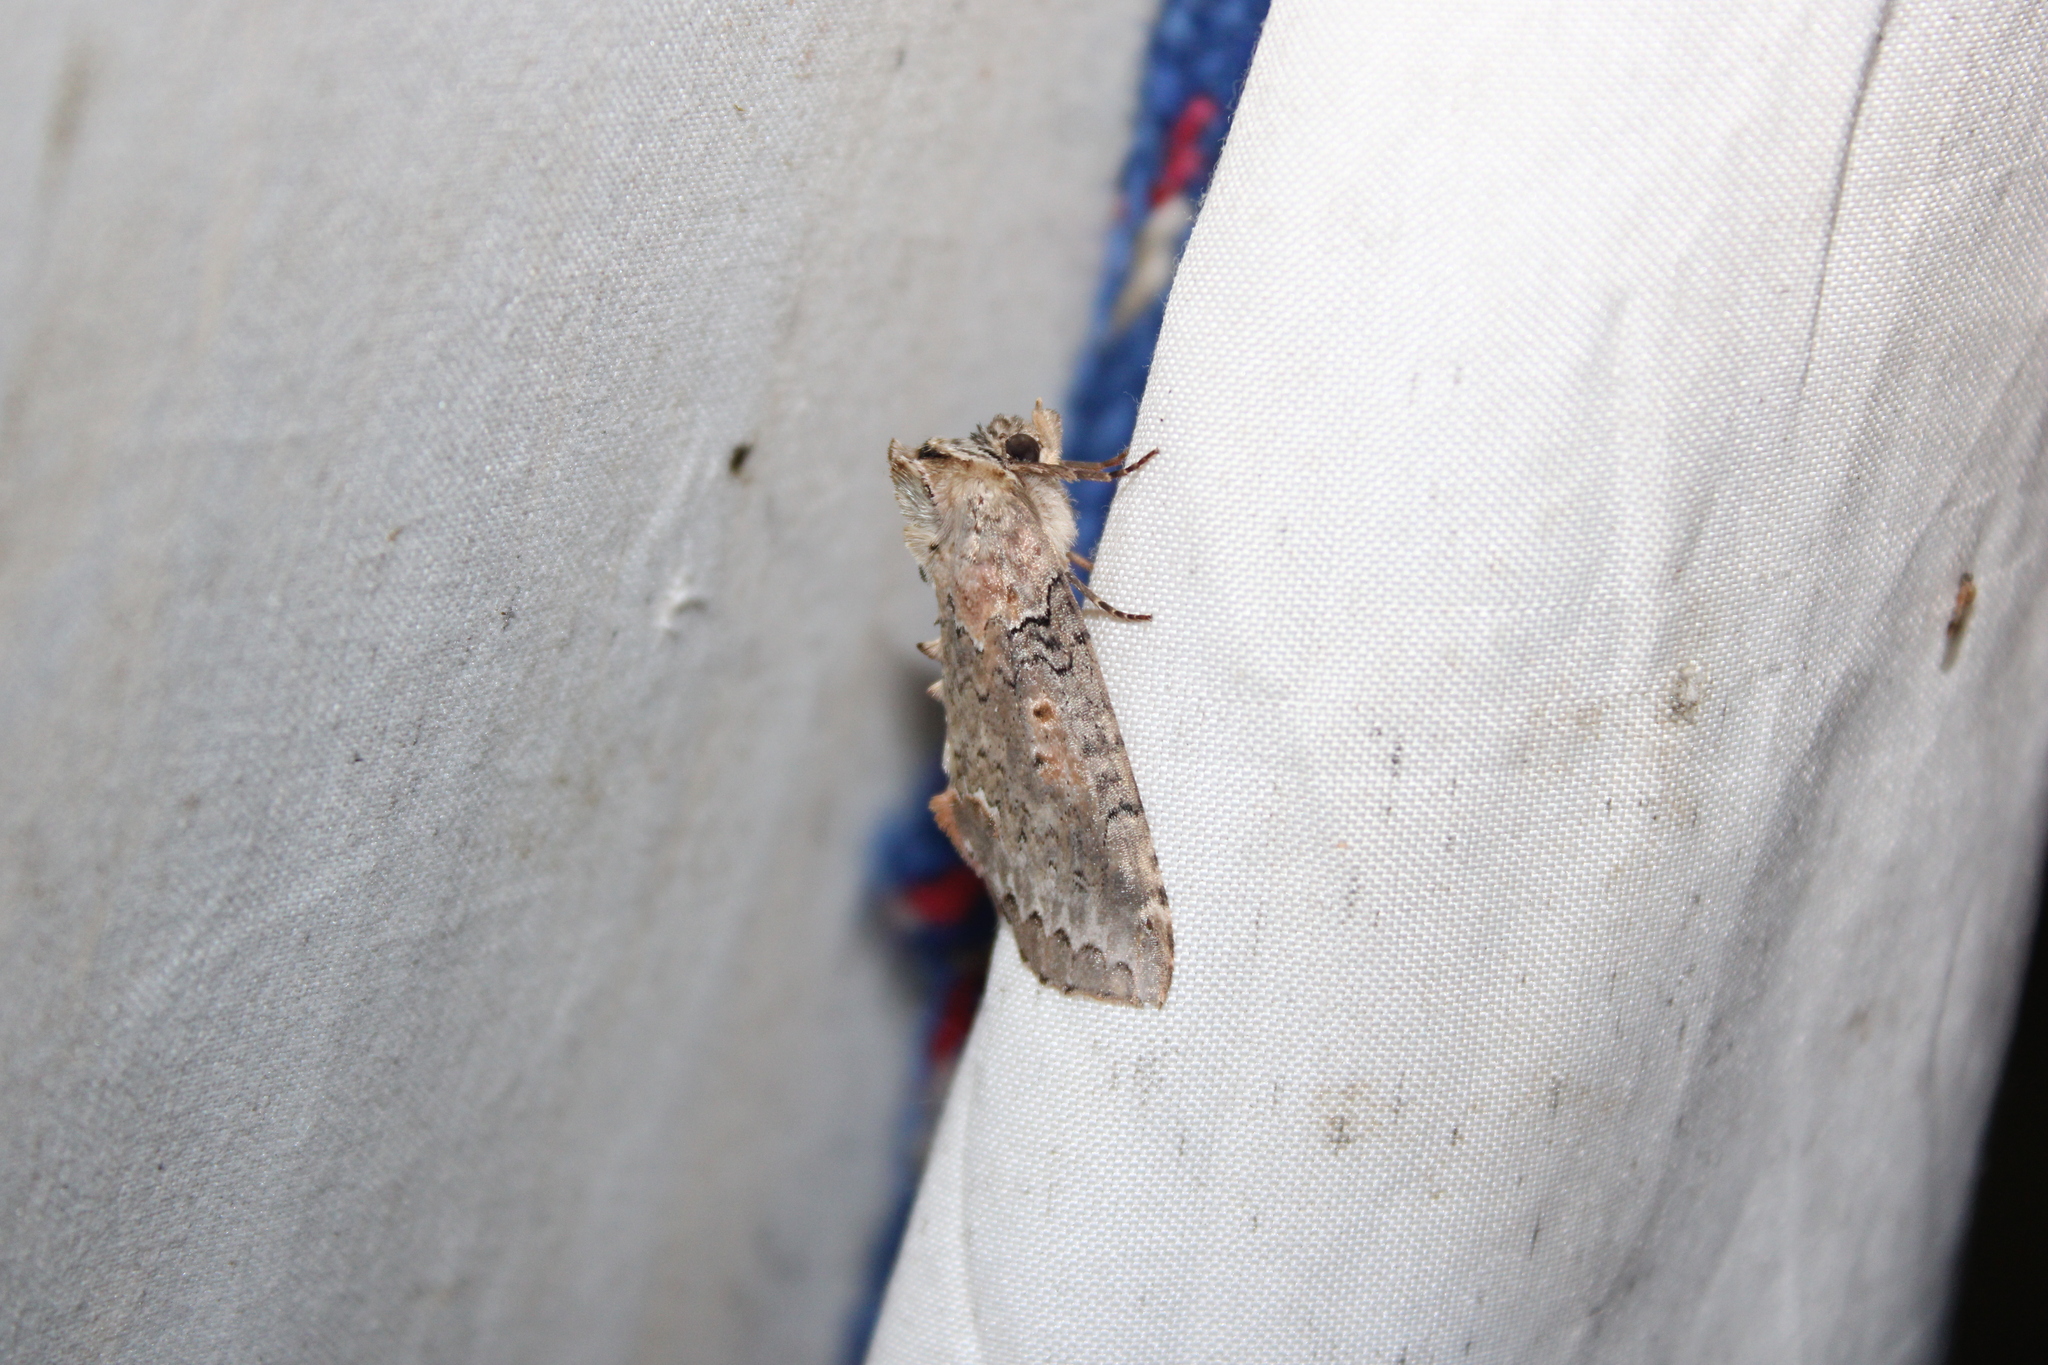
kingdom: Animalia
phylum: Arthropoda
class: Insecta
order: Lepidoptera
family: Drepanidae
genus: Pseudothyatira
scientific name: Pseudothyatira cymatophoroides
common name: Tufted thyatirid moth
